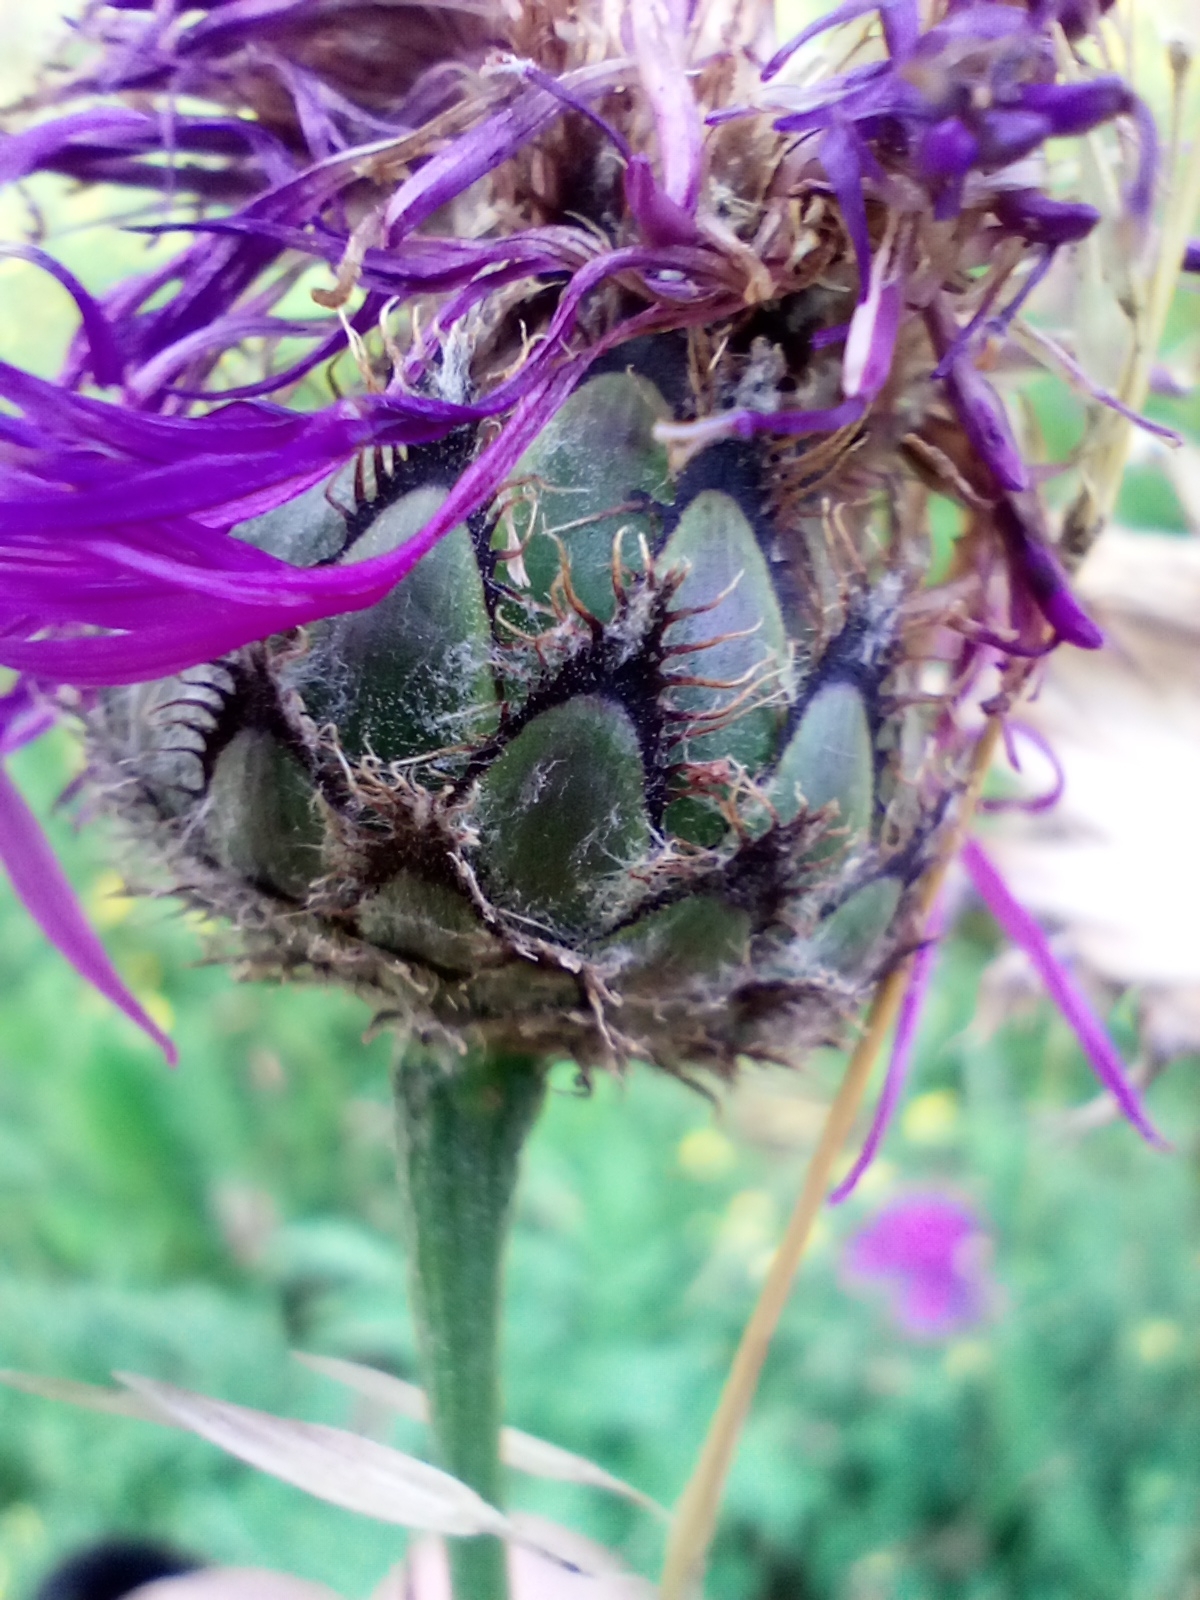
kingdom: Plantae
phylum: Tracheophyta
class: Magnoliopsida
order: Asterales
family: Asteraceae
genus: Centaurea
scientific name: Centaurea scabiosa
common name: Greater knapweed
